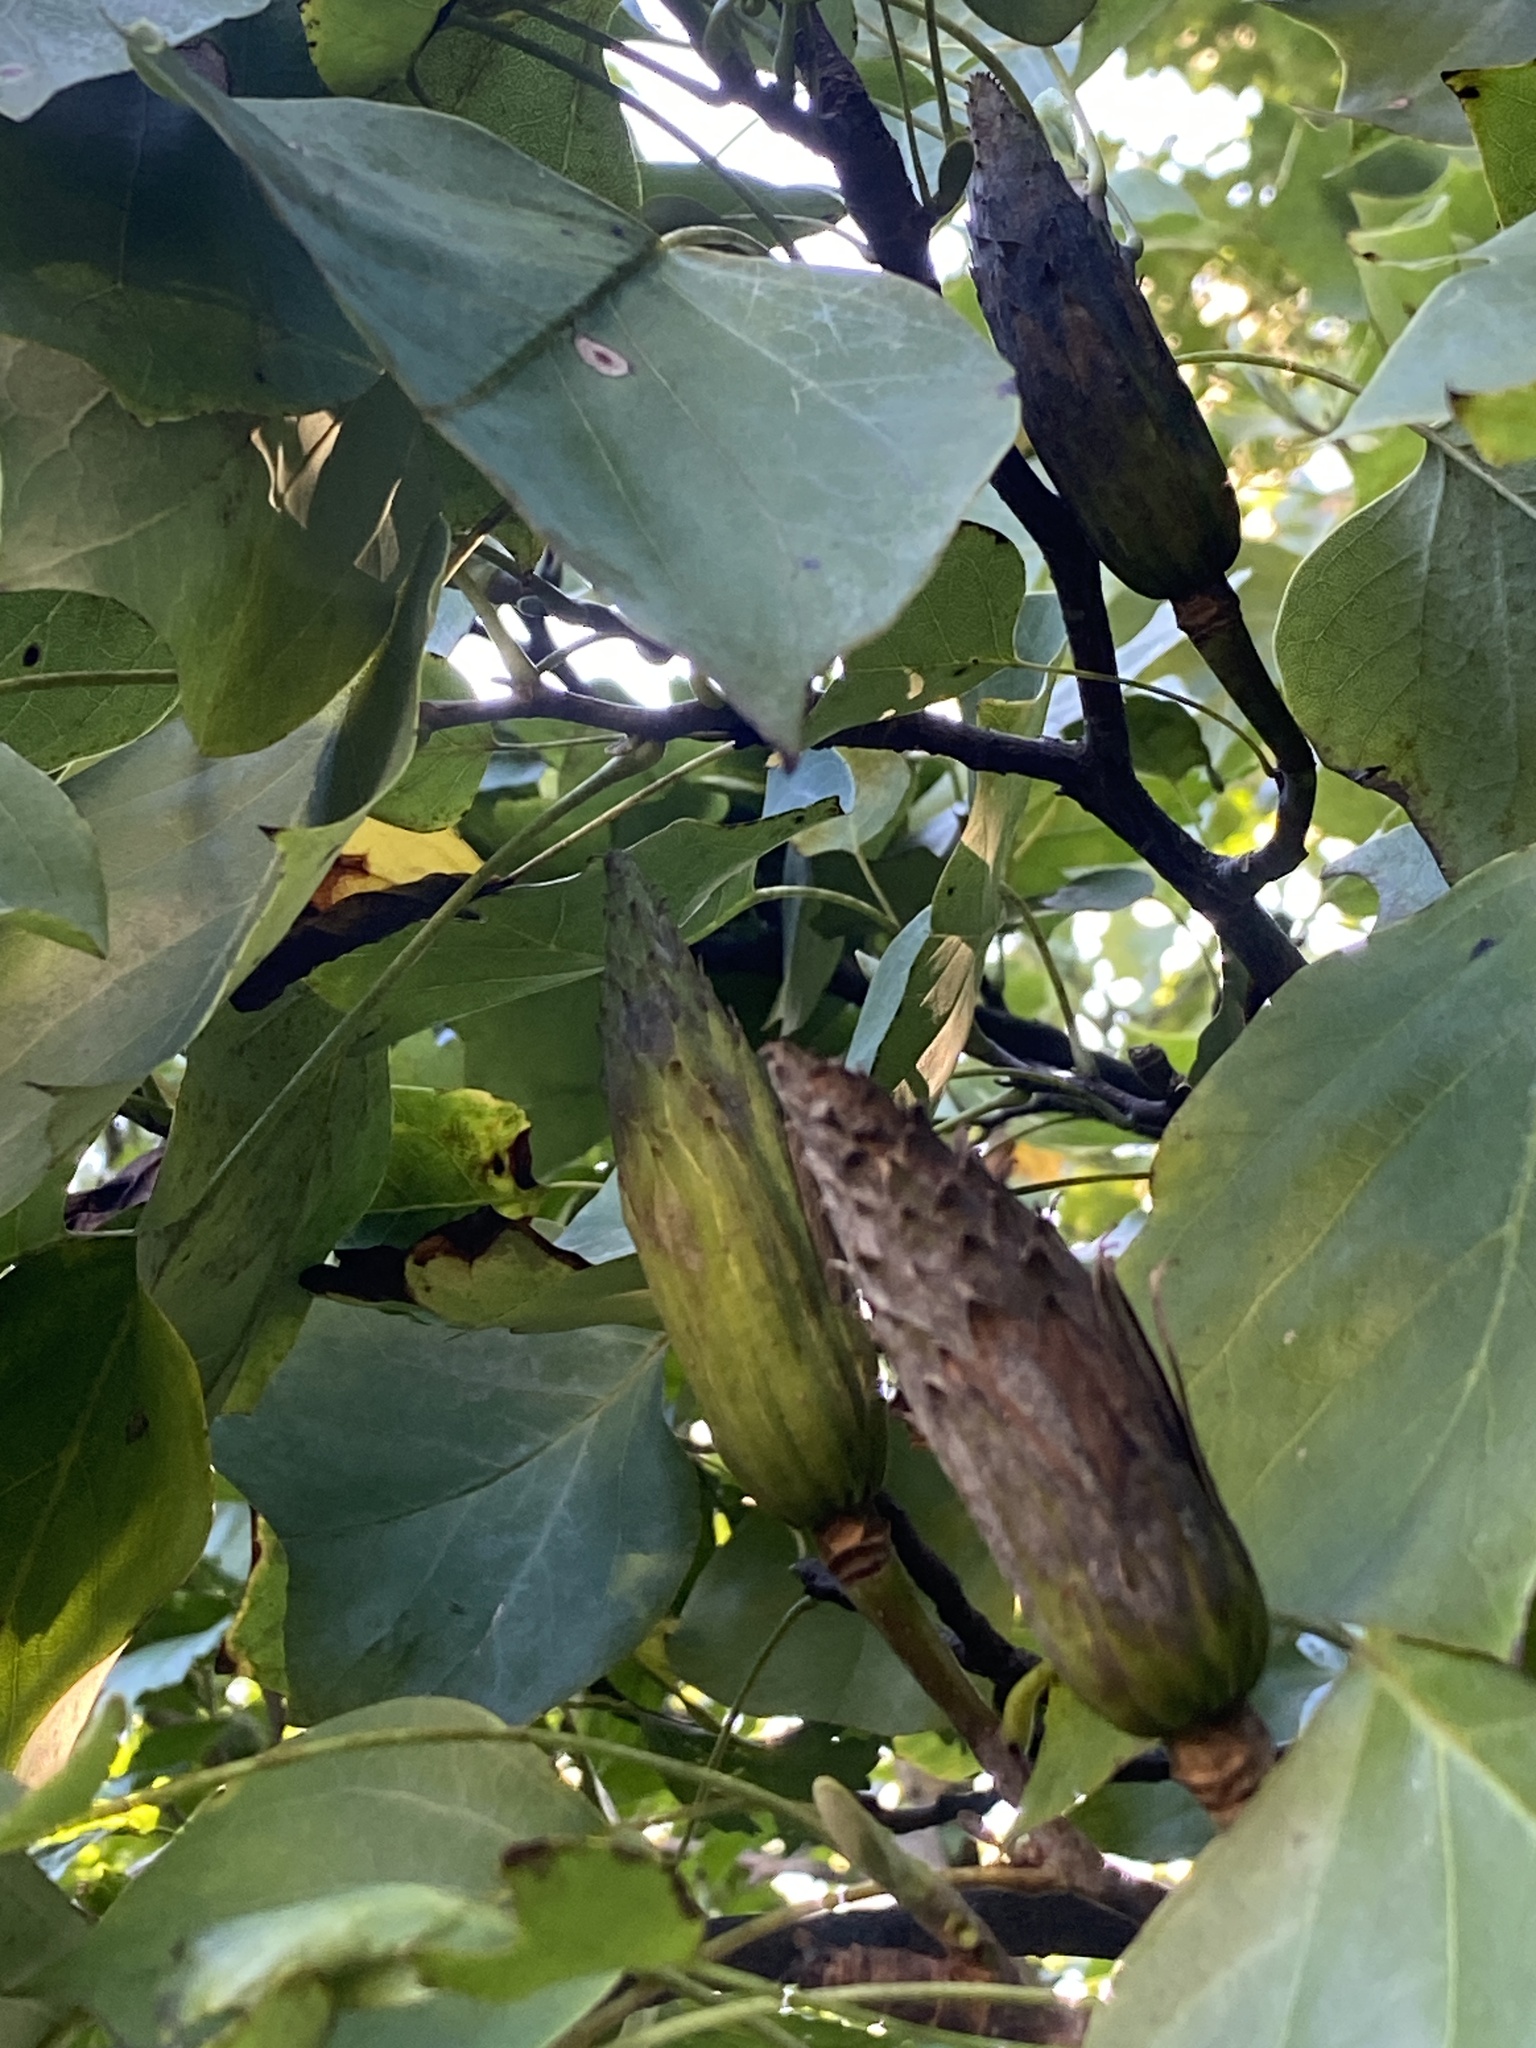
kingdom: Plantae
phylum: Tracheophyta
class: Magnoliopsida
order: Magnoliales
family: Magnoliaceae
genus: Liriodendron
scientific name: Liriodendron tulipifera
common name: Tulip tree
